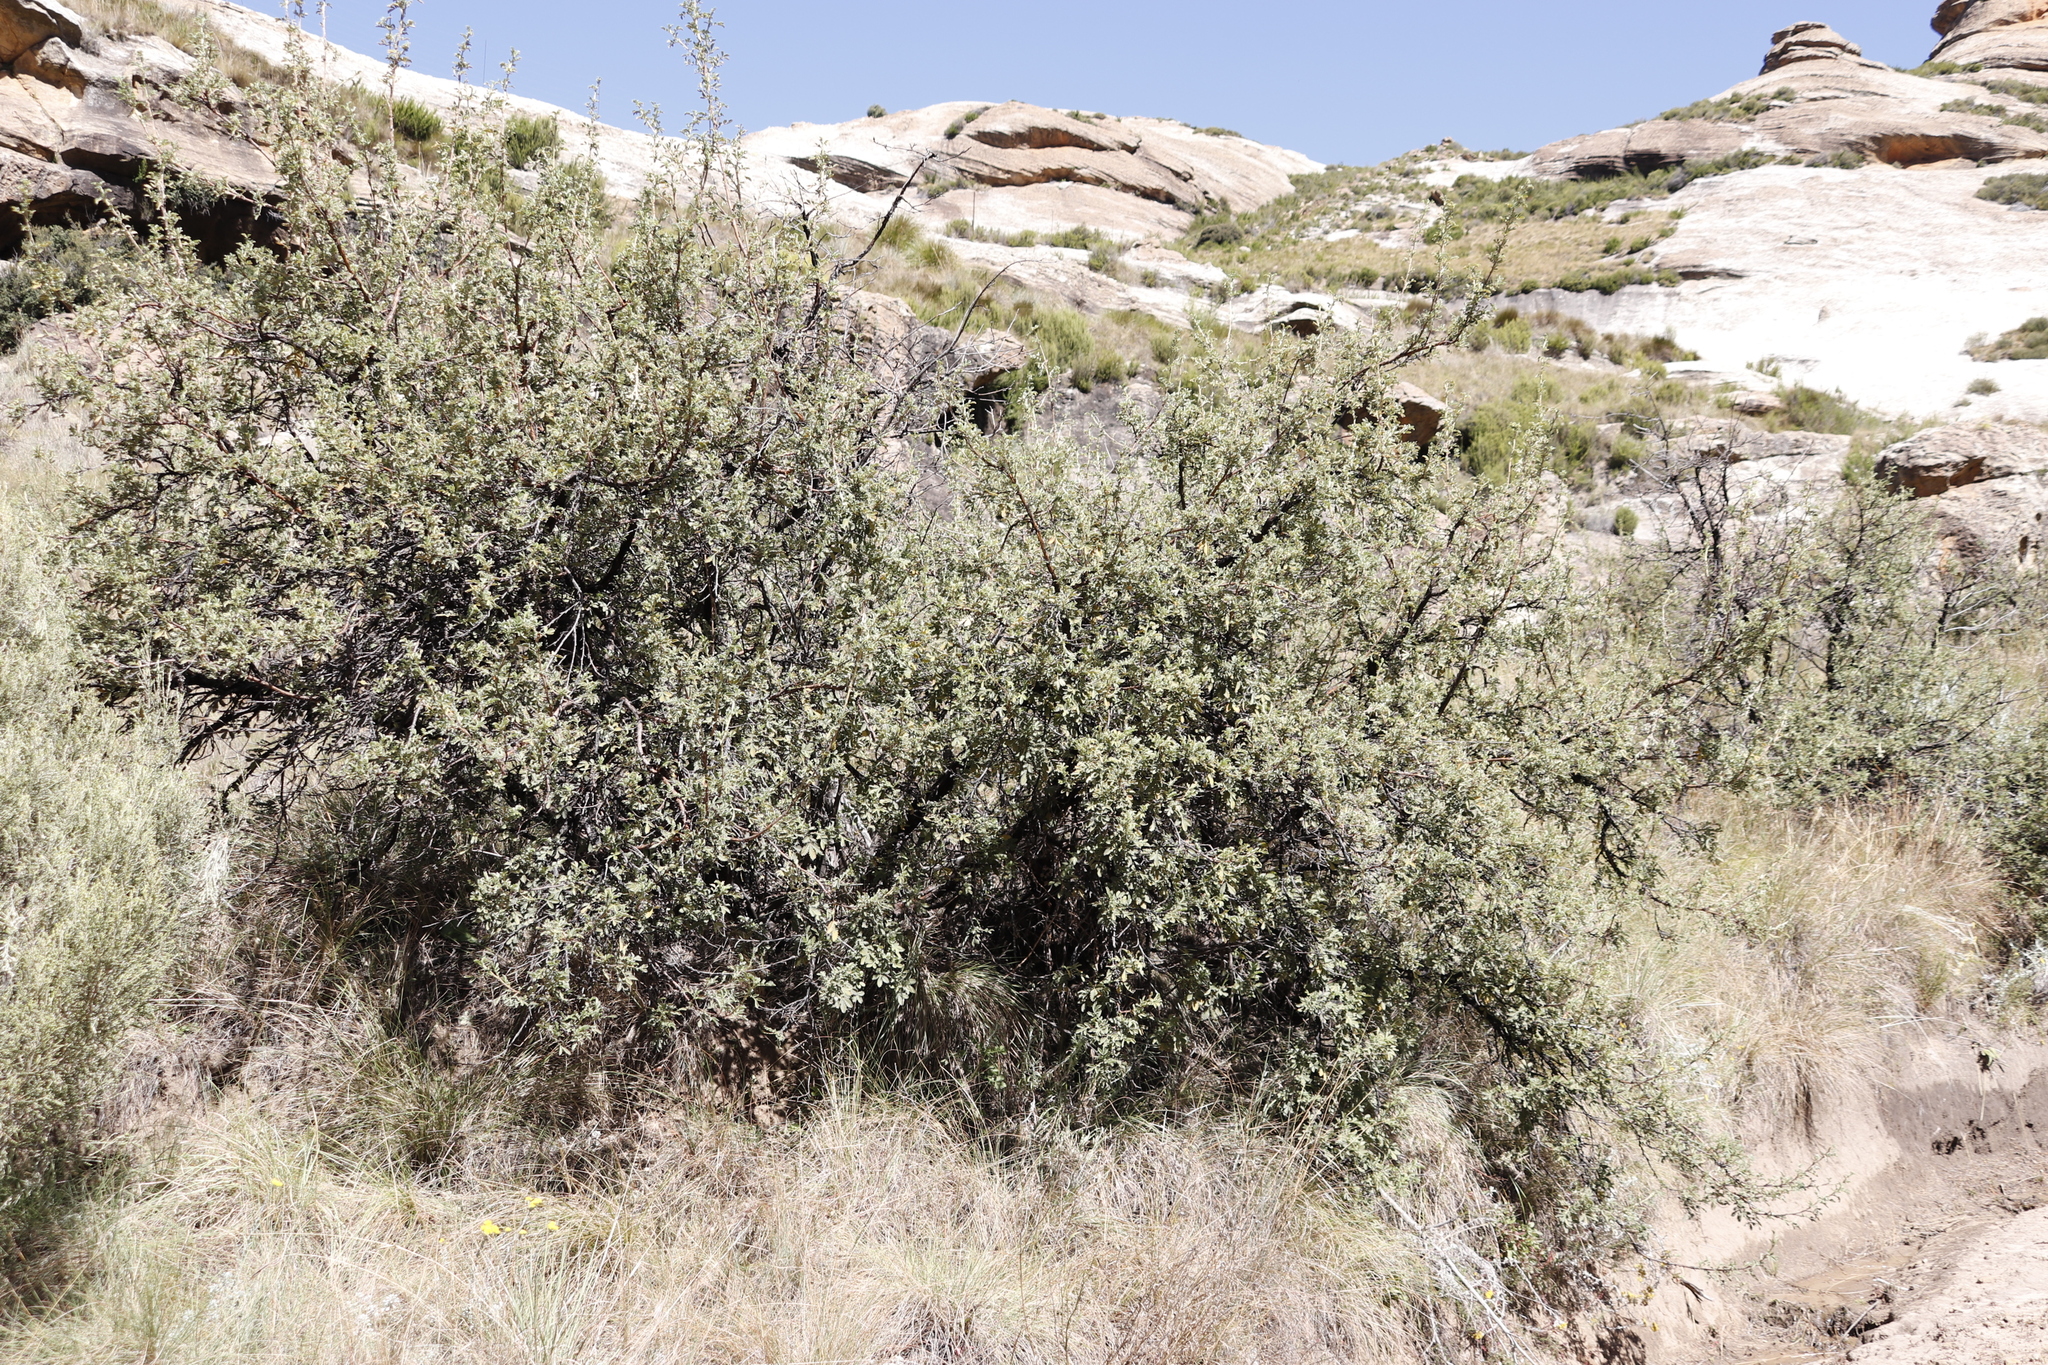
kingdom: Plantae
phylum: Tracheophyta
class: Magnoliopsida
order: Rosales
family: Rosaceae
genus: Leucosidea
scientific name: Leucosidea sericea
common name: Oldwood
